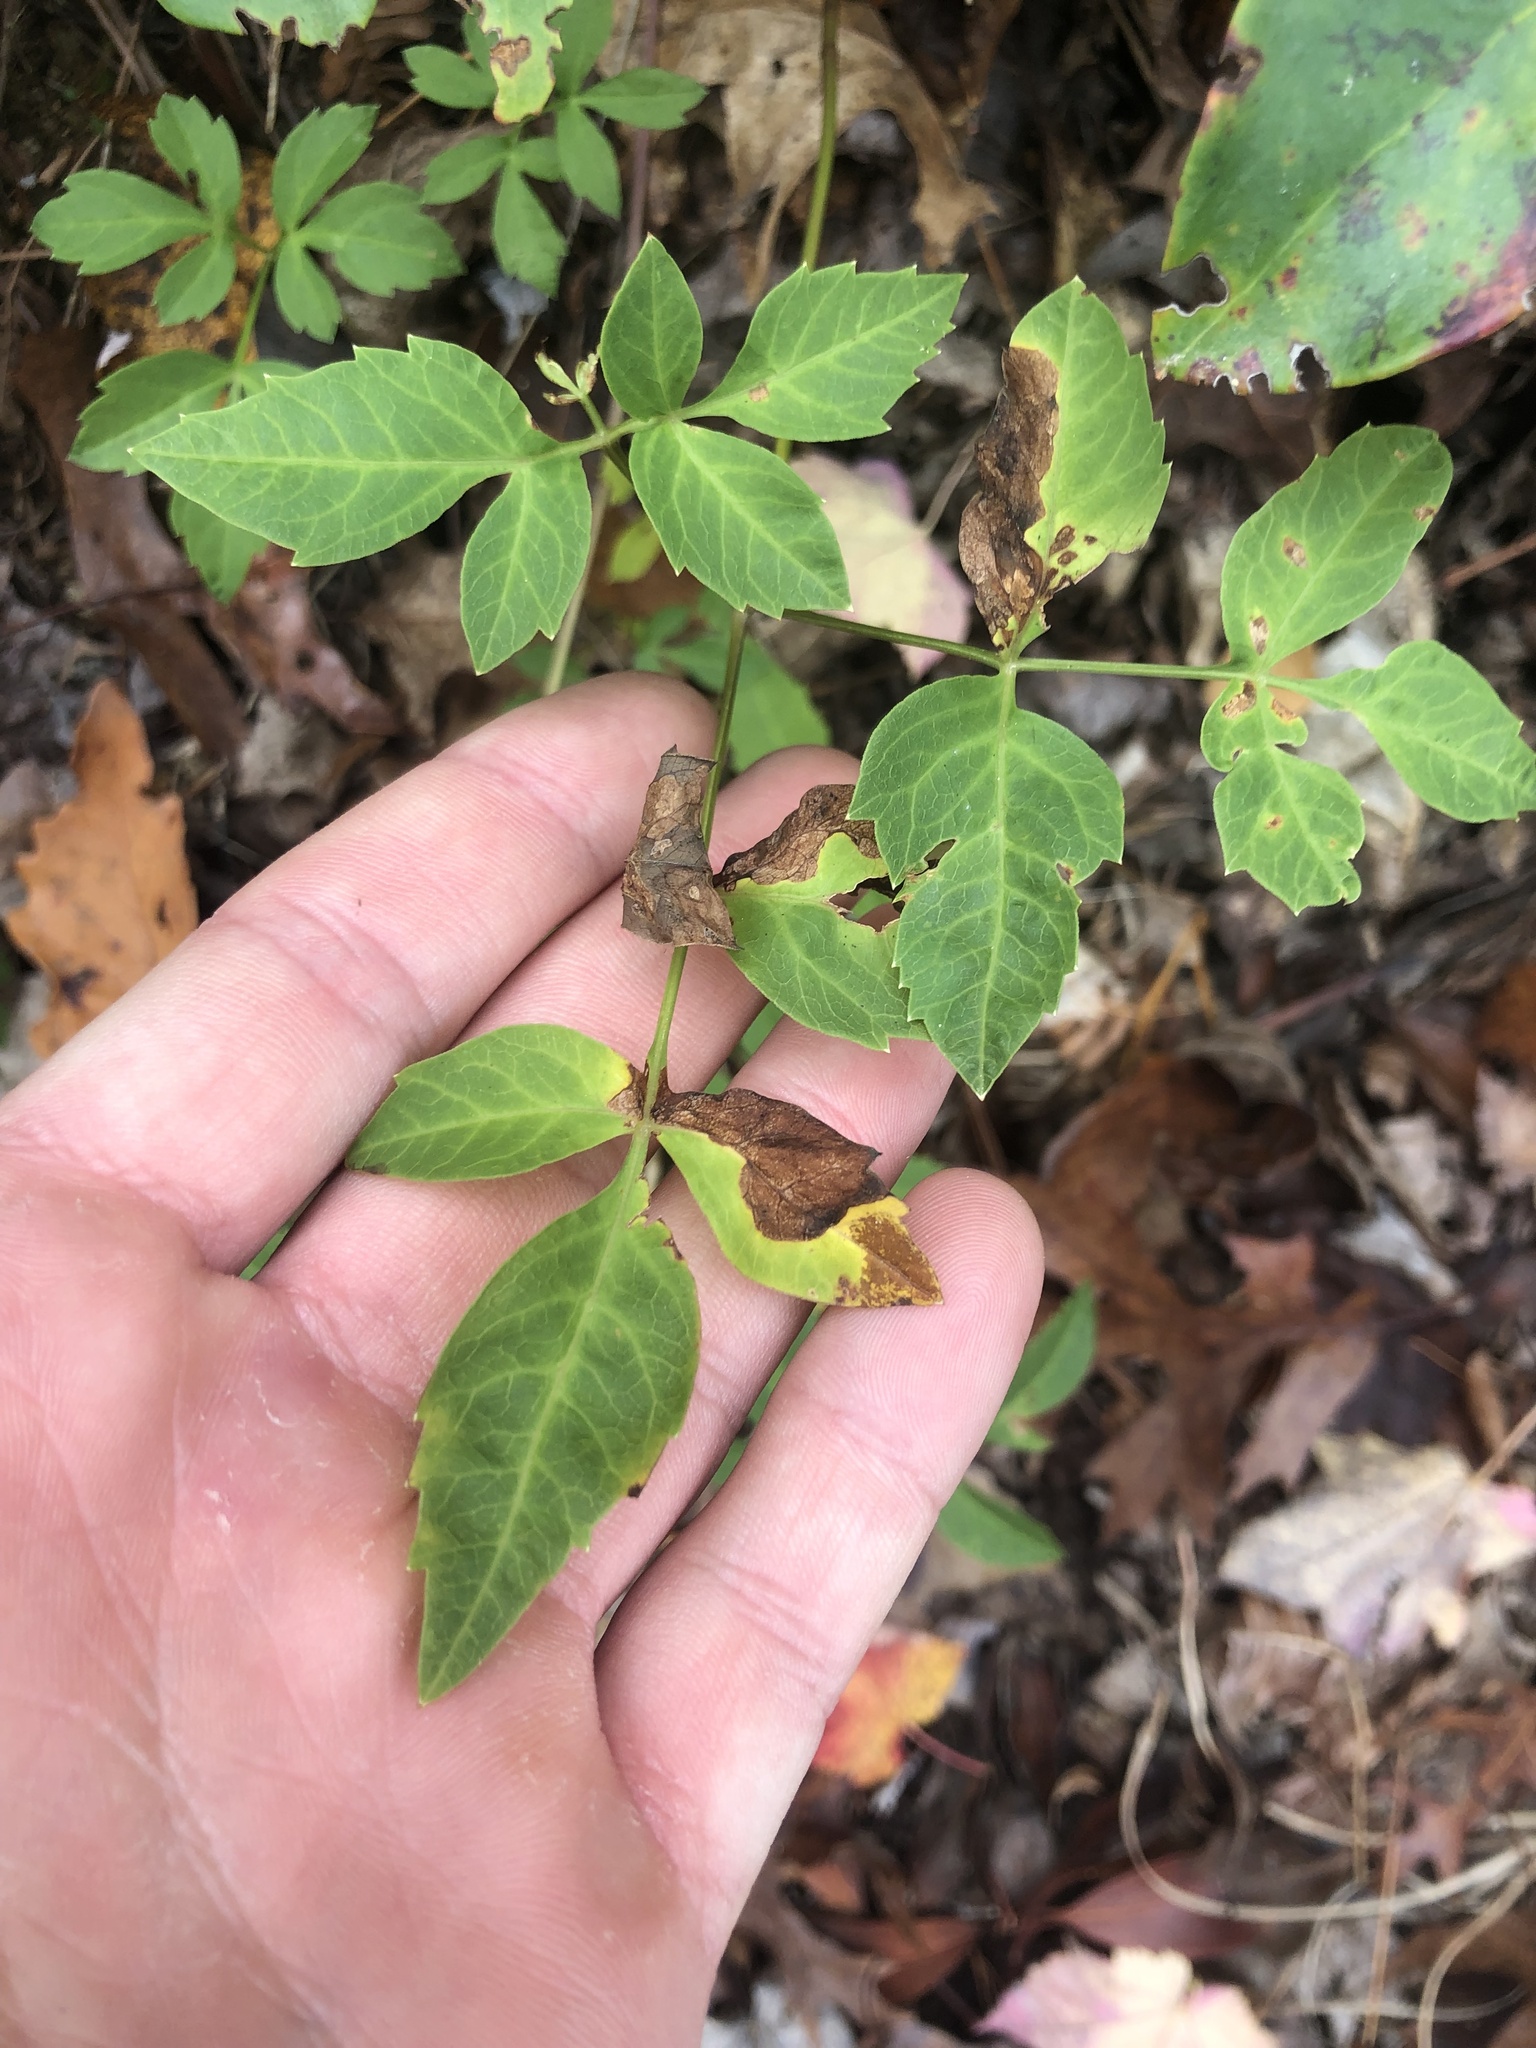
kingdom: Plantae
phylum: Tracheophyta
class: Magnoliopsida
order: Apiales
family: Apiaceae
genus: Ligusticum
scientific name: Ligusticum canadense
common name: American lovage
